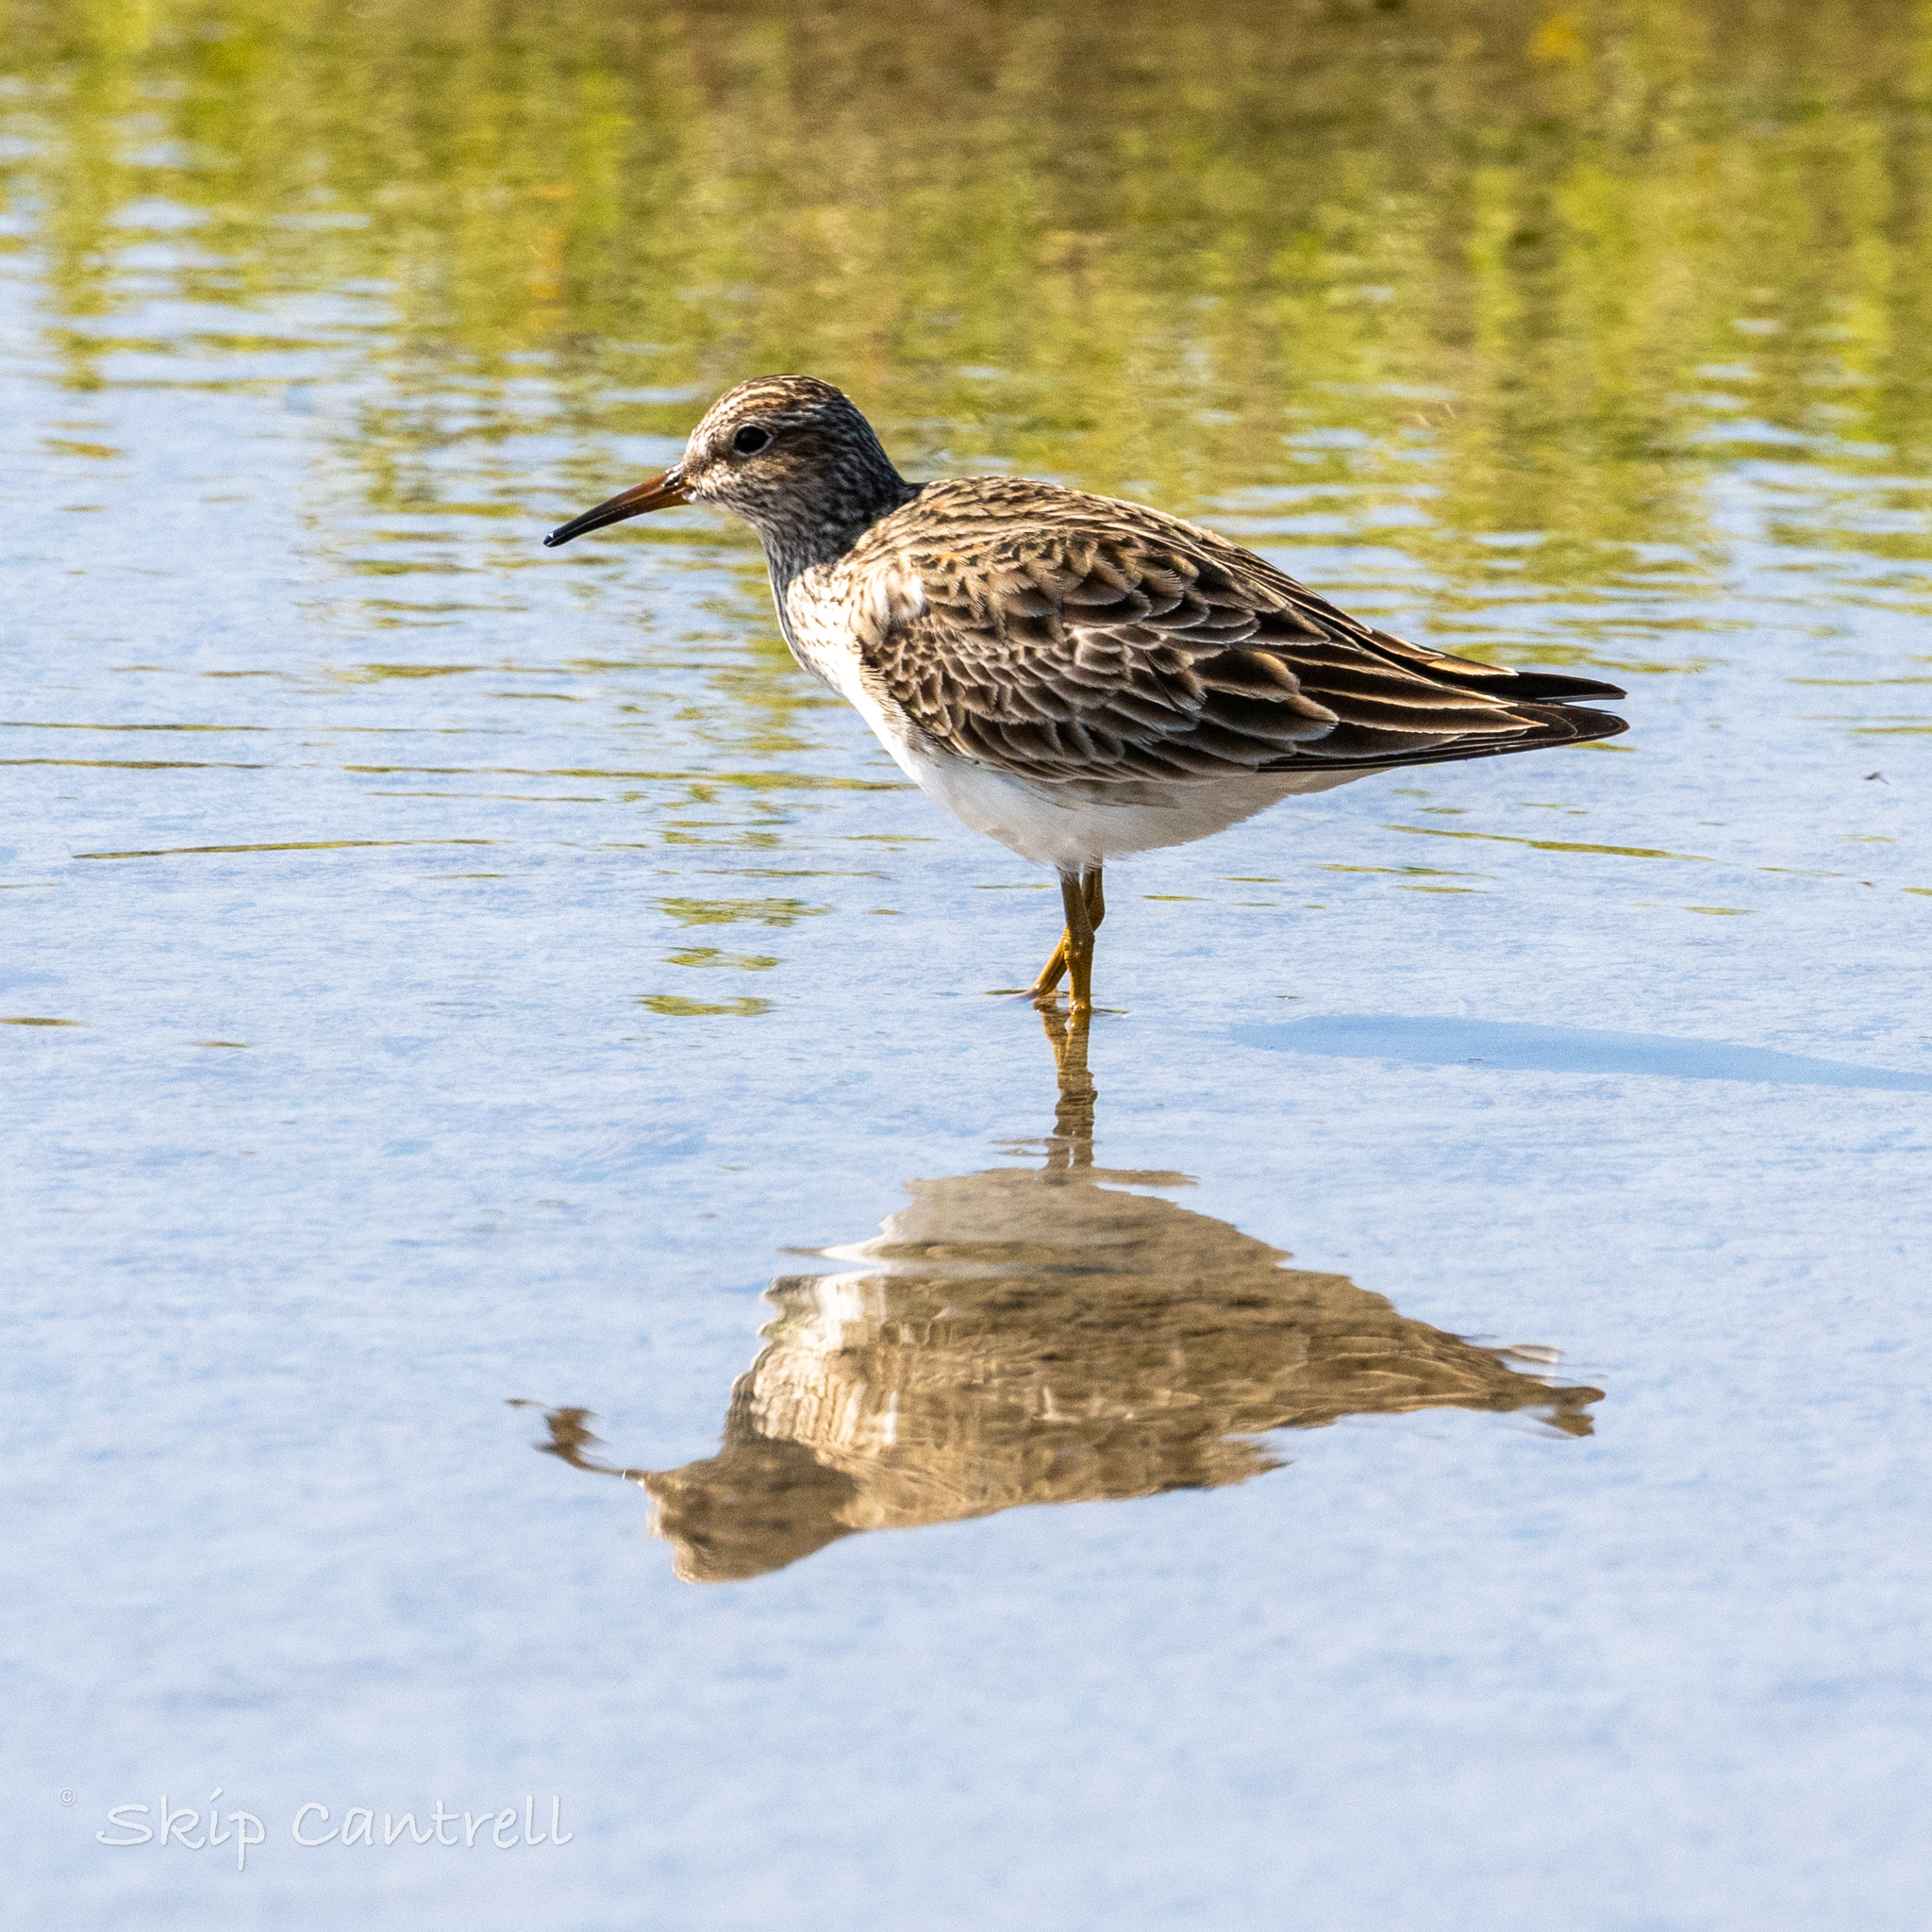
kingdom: Animalia
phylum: Chordata
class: Aves
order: Charadriiformes
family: Scolopacidae
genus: Calidris
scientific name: Calidris melanotos
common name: Pectoral sandpiper
